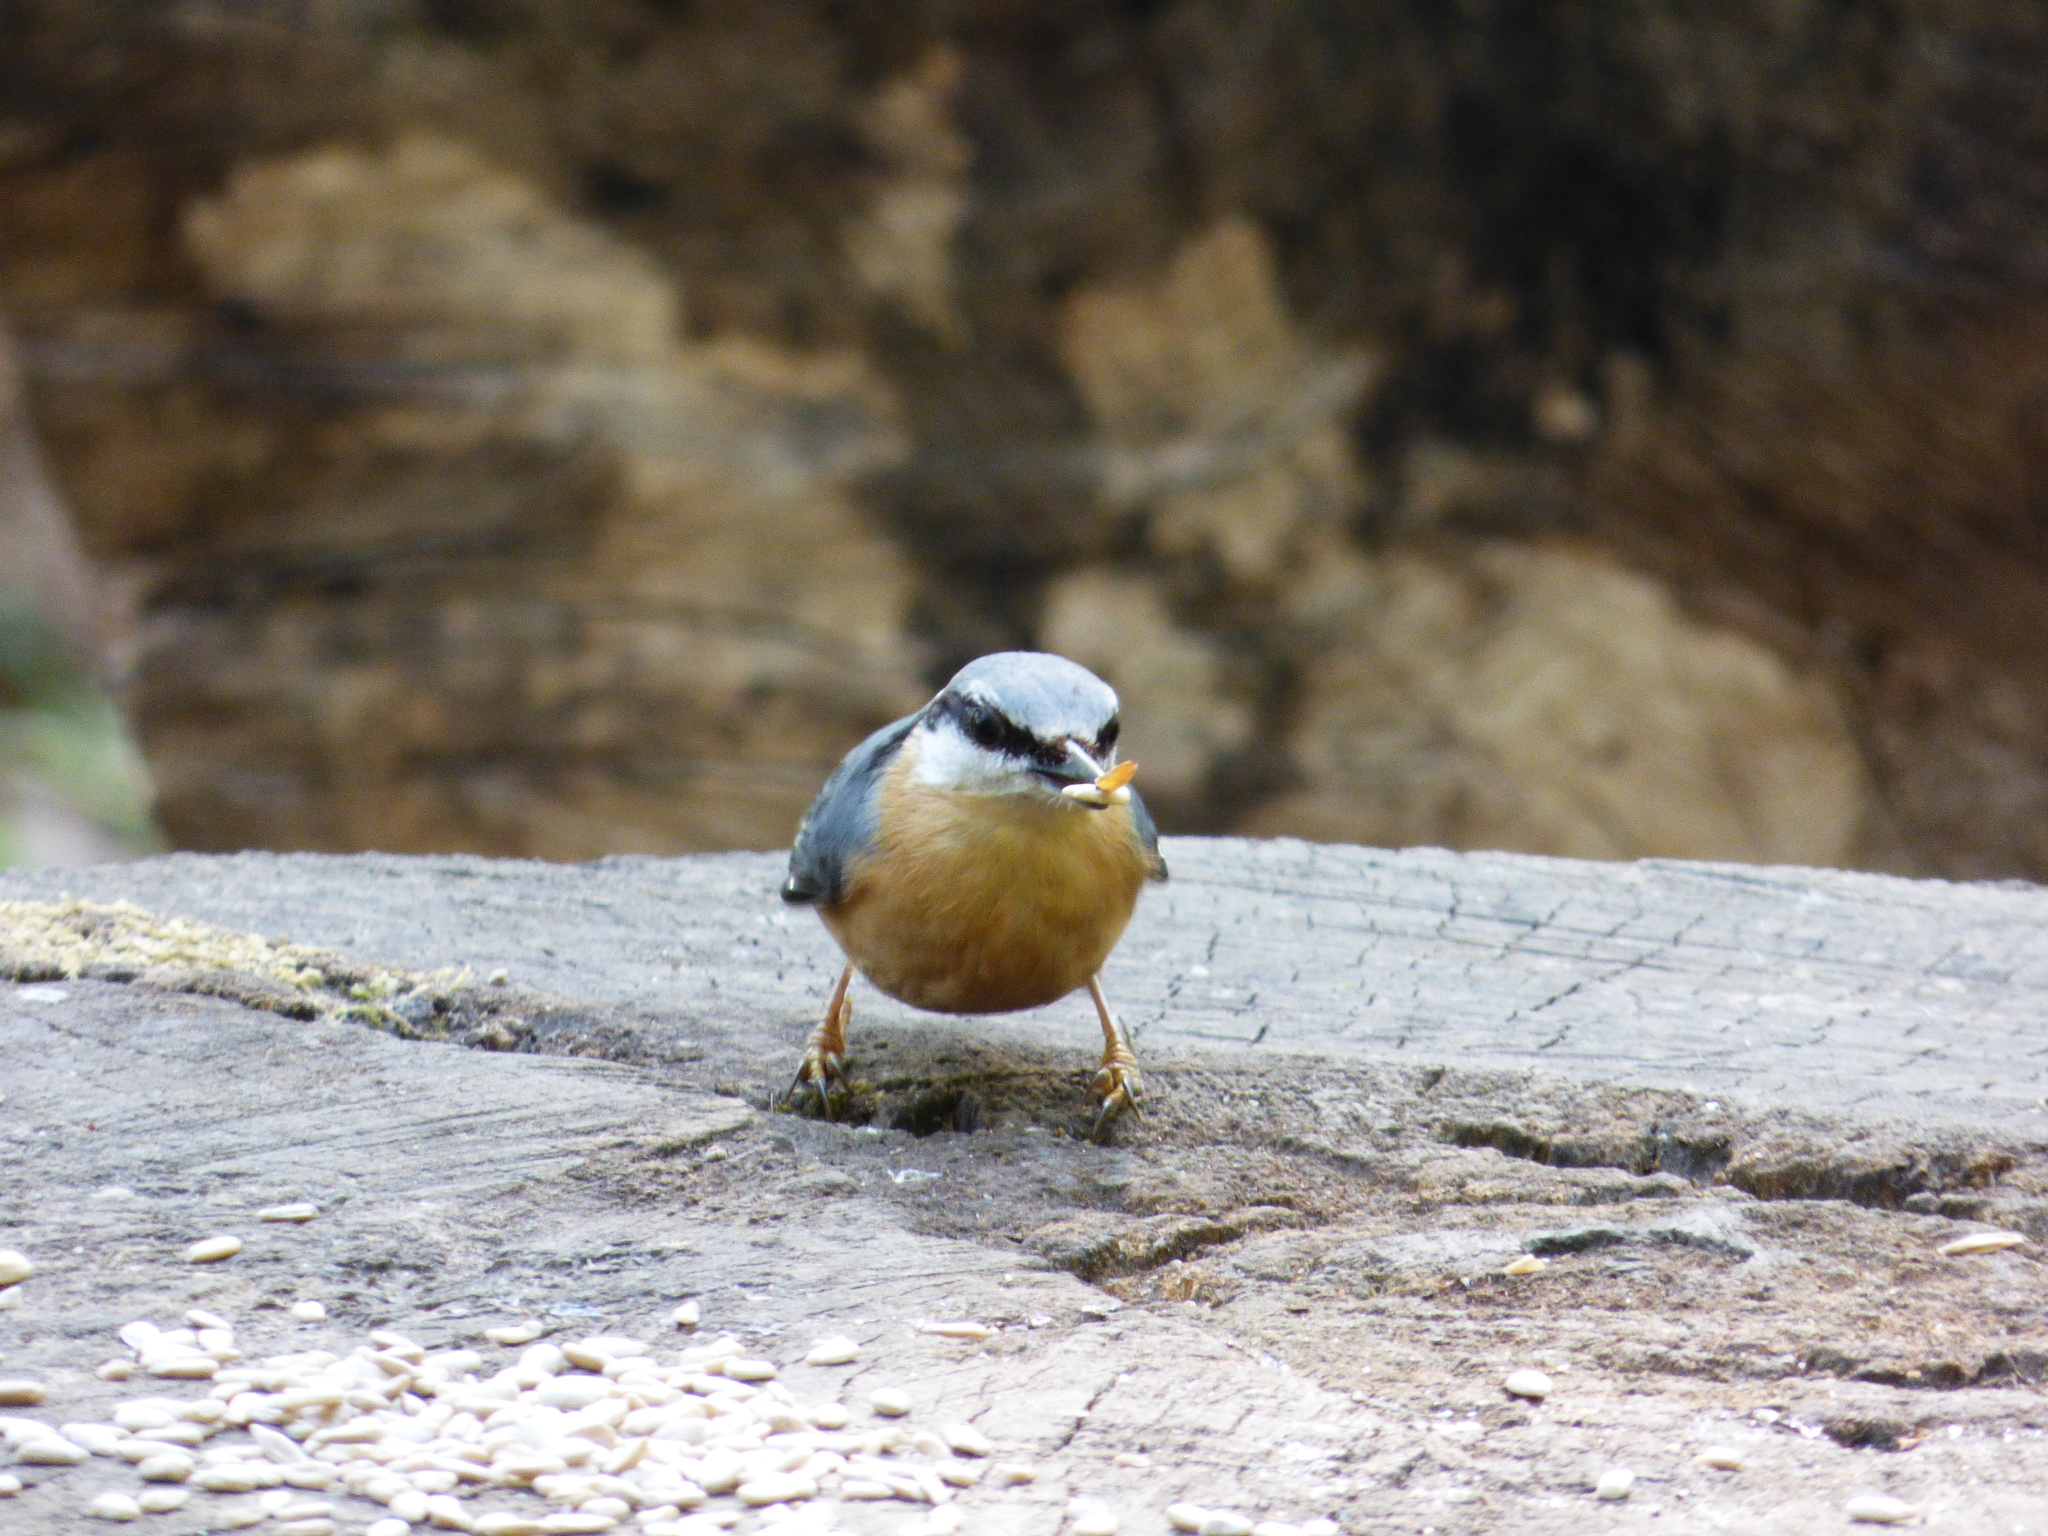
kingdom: Animalia
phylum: Chordata
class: Aves
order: Passeriformes
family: Sittidae
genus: Sitta
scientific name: Sitta europaea
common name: Eurasian nuthatch
